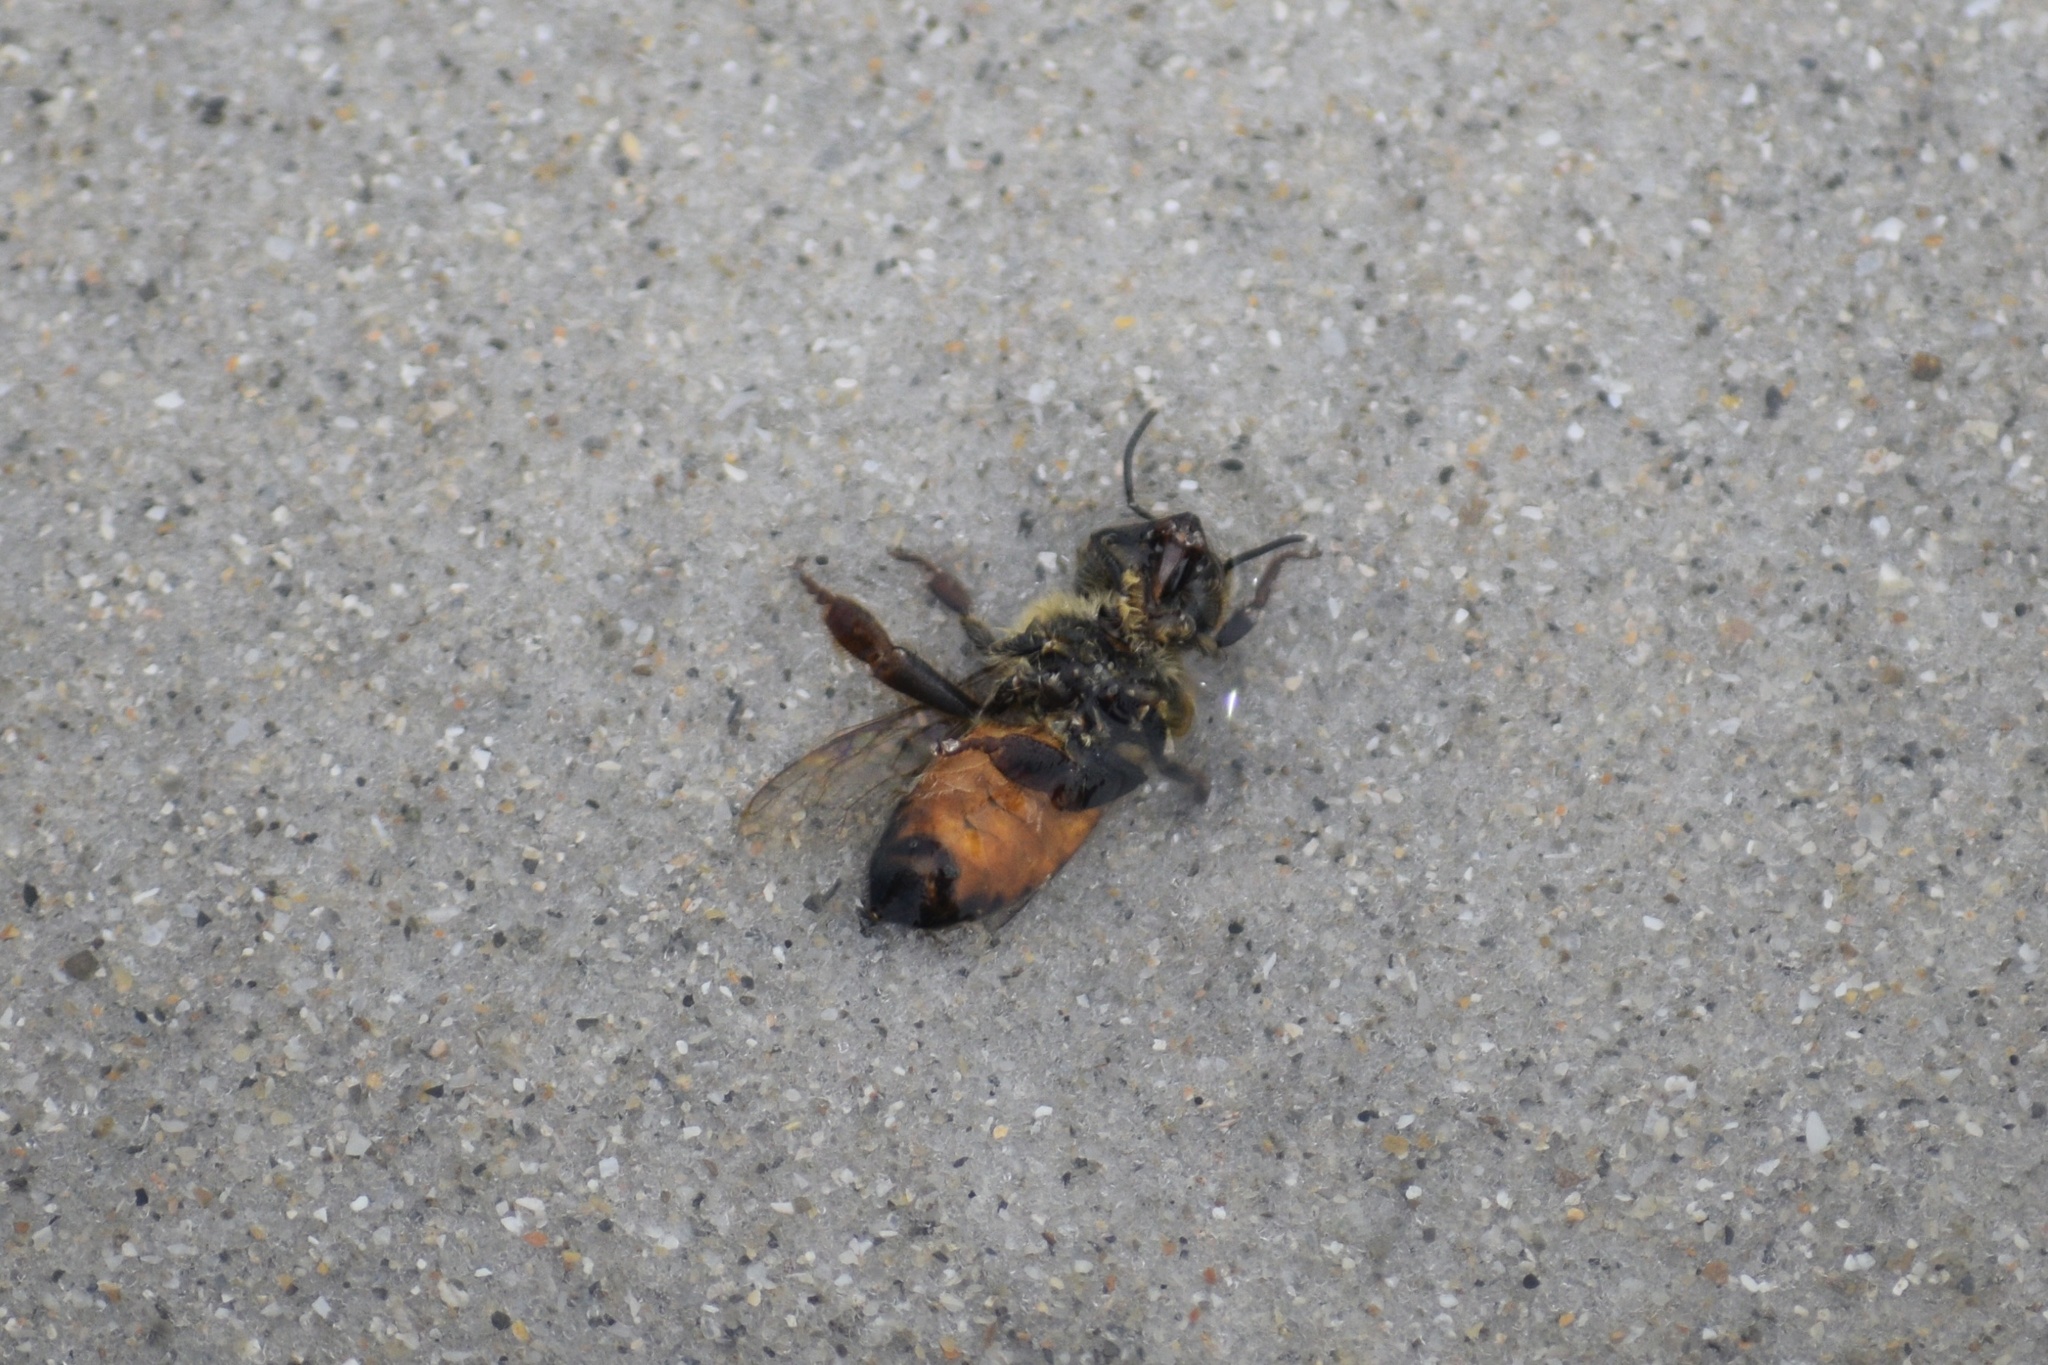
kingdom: Animalia
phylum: Arthropoda
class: Insecta
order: Hymenoptera
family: Apidae
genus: Apis
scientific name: Apis mellifera
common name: Honey bee
